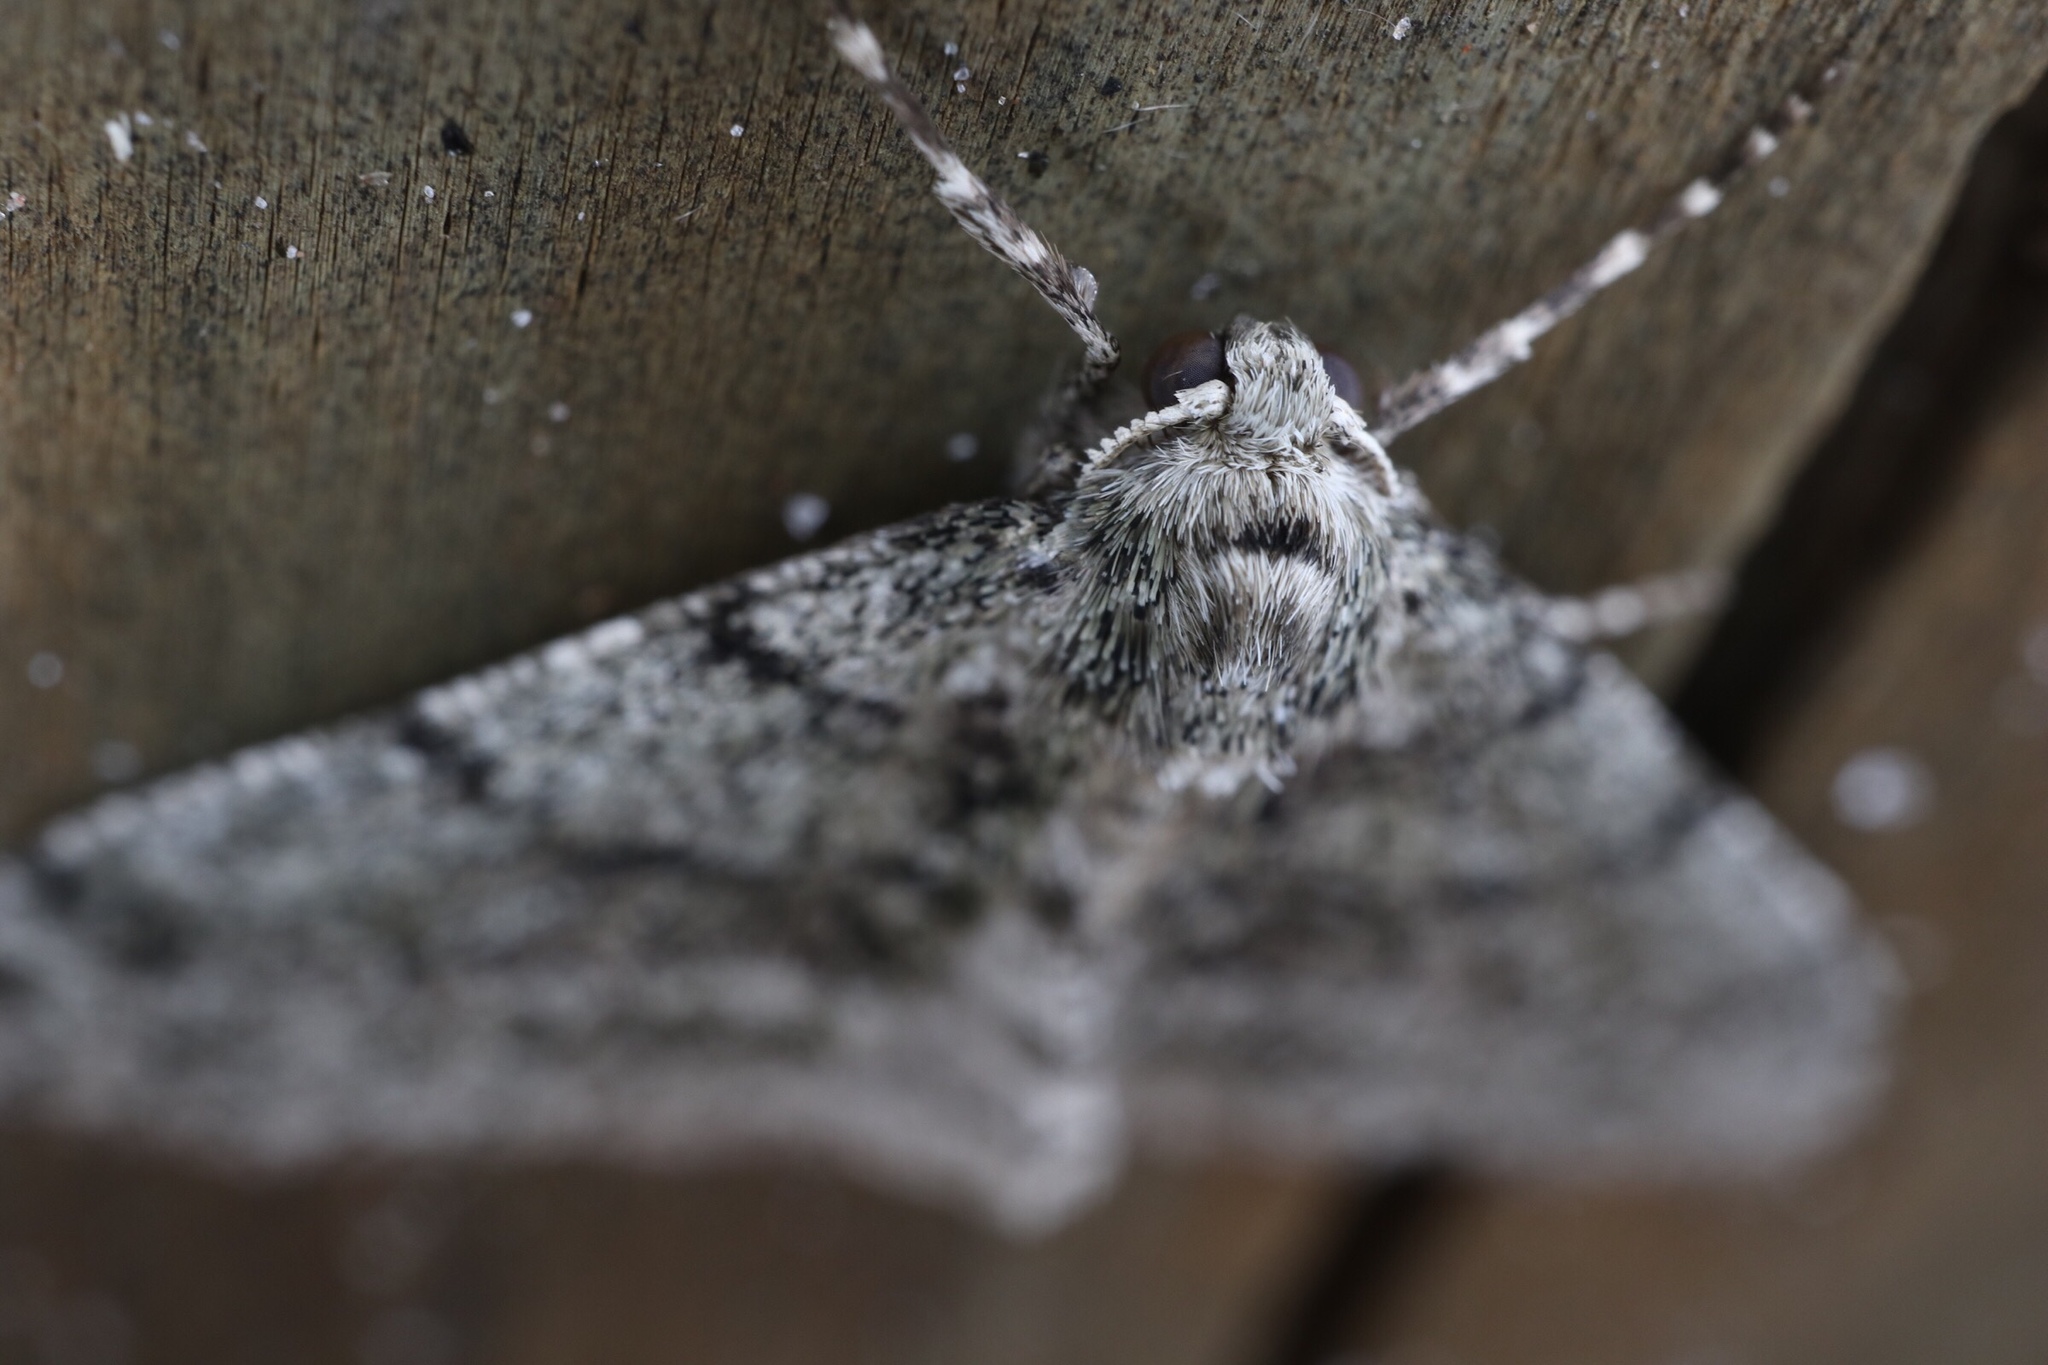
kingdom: Animalia
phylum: Arthropoda
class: Insecta
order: Lepidoptera
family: Geometridae
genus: Phigalia
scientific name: Phigalia strigataria
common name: Small phigalia
